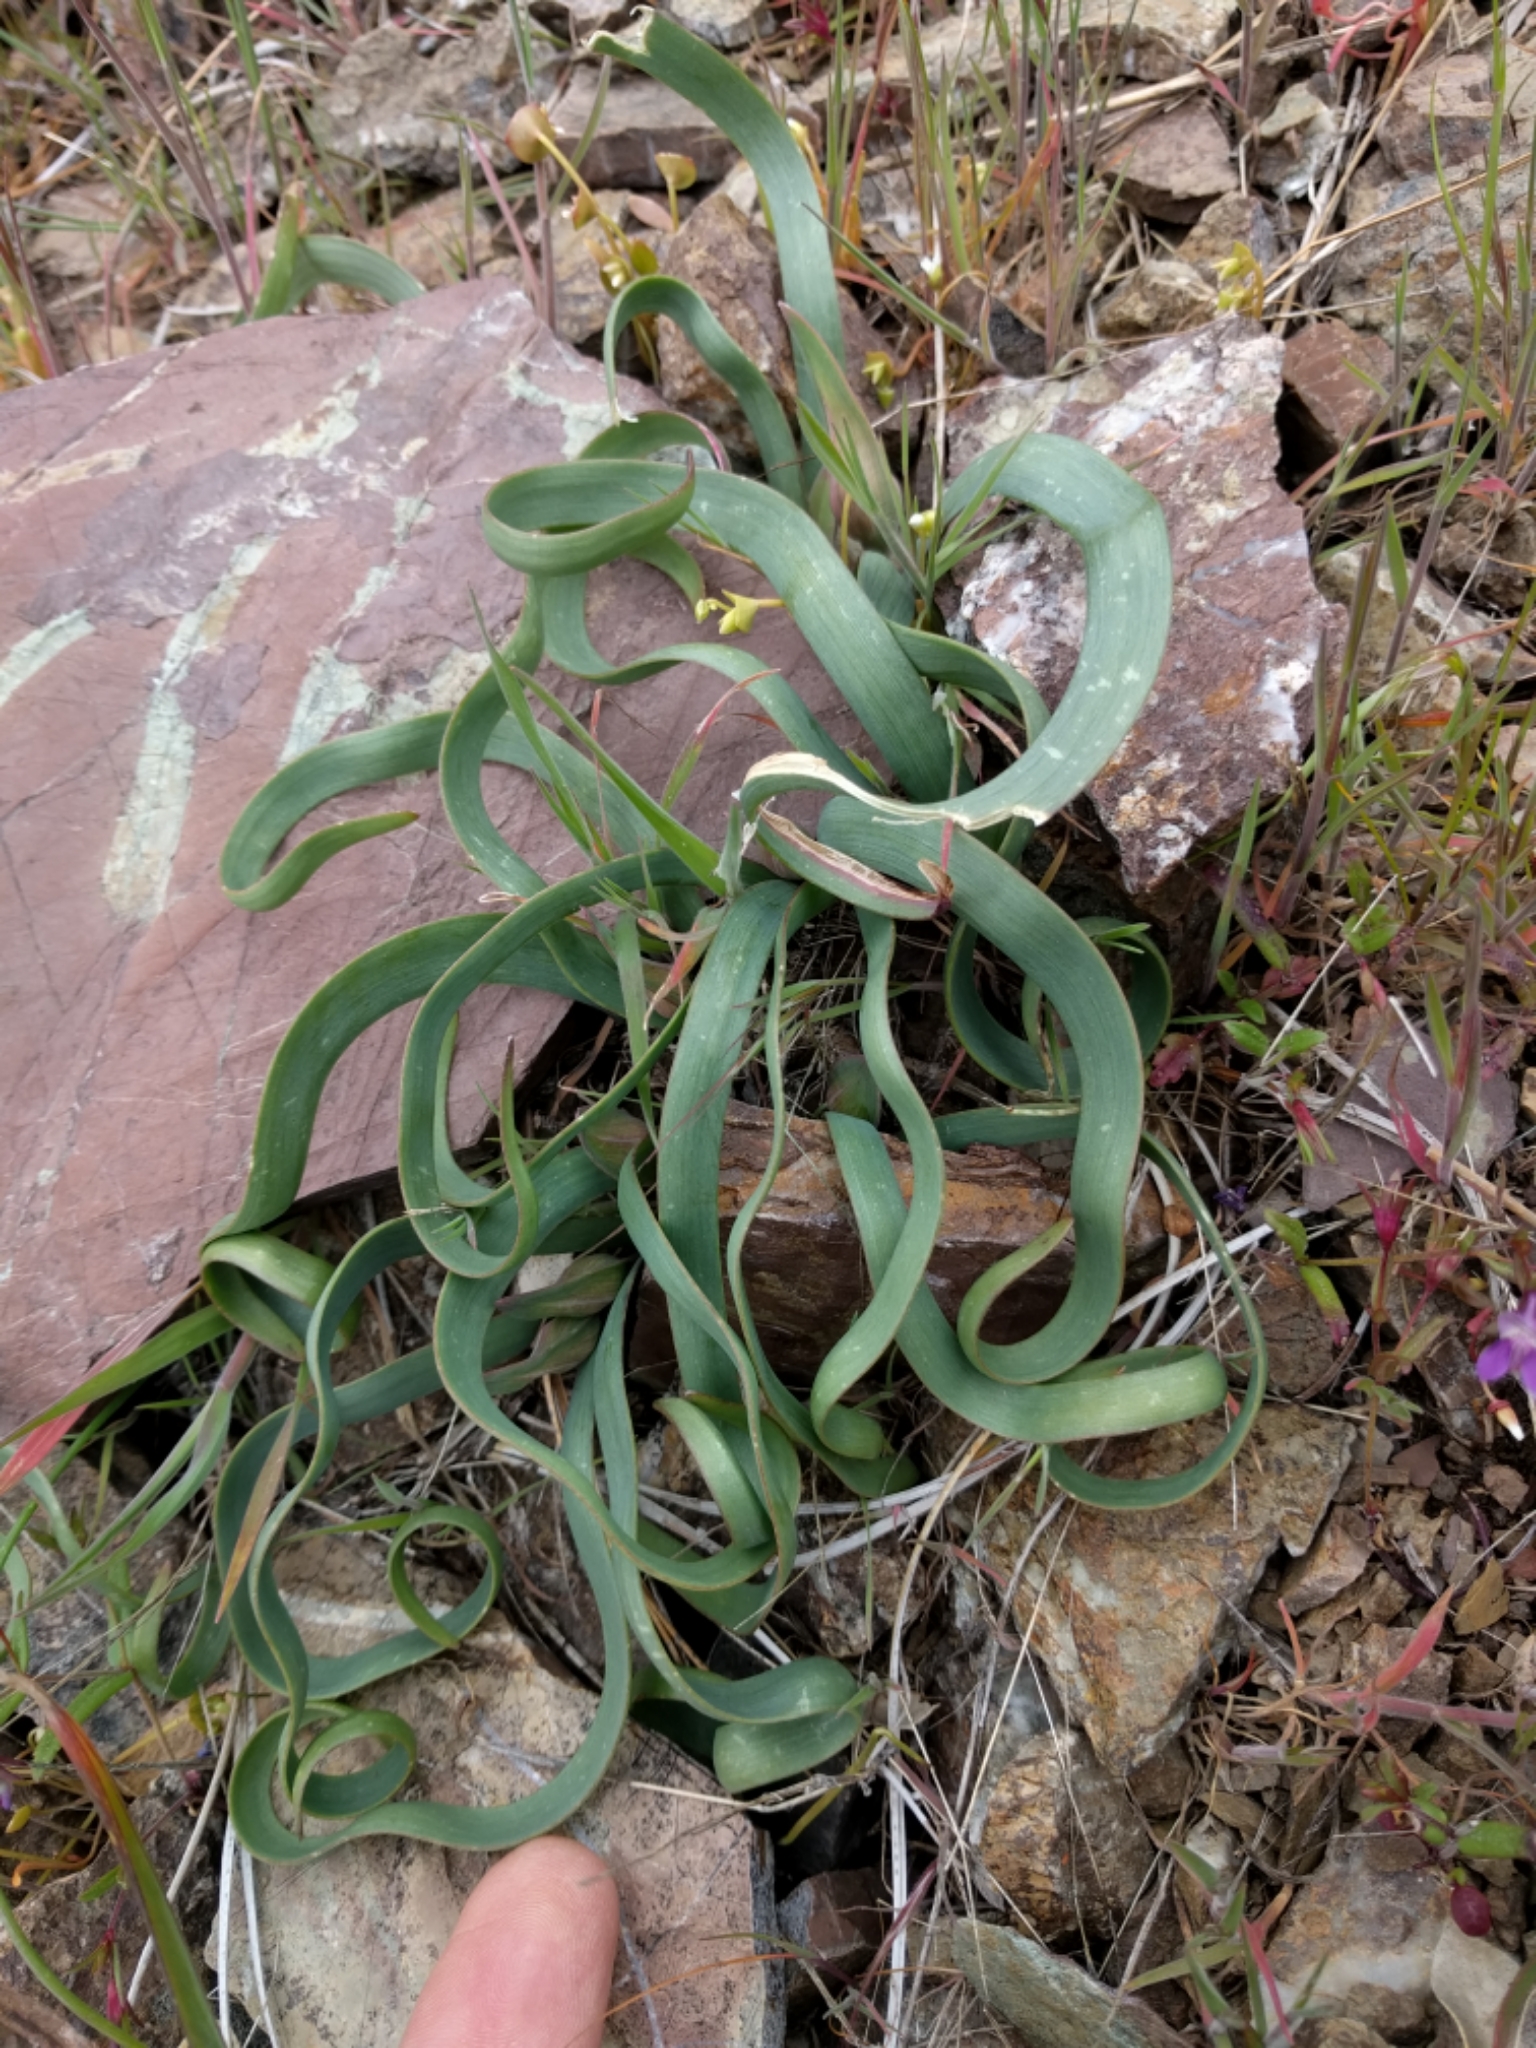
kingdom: Plantae
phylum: Tracheophyta
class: Liliopsida
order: Asparagales
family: Amaryllidaceae
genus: Allium
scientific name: Allium falcifolium
